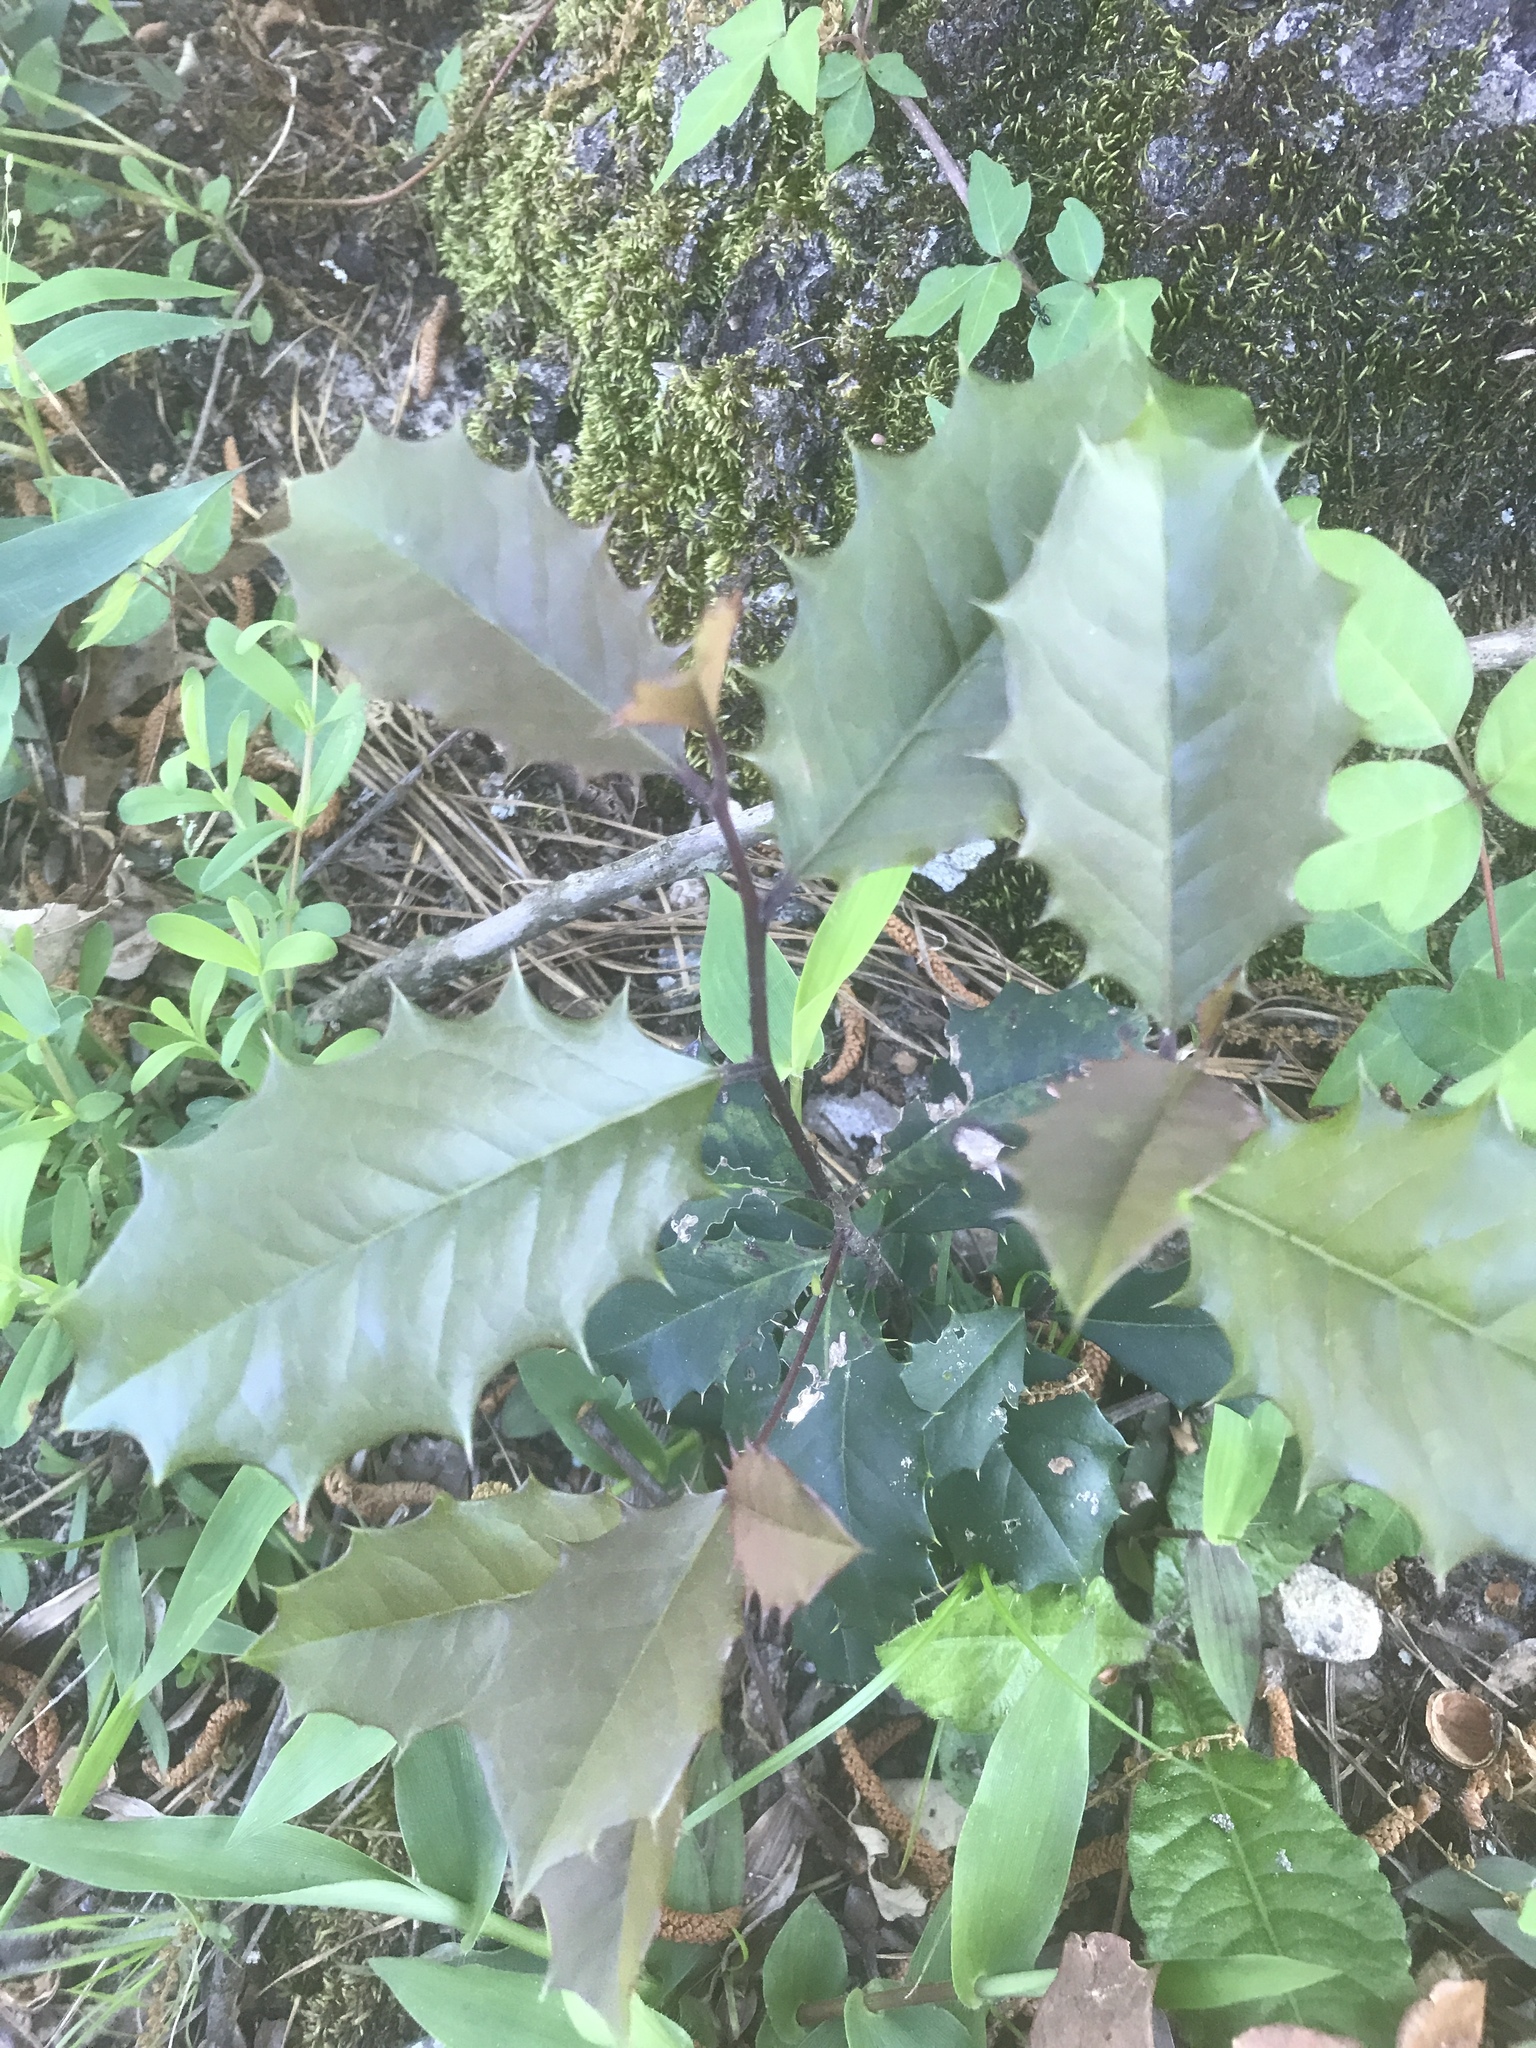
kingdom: Plantae
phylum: Tracheophyta
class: Magnoliopsida
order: Aquifoliales
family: Aquifoliaceae
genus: Ilex
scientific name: Ilex opaca
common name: American holly
